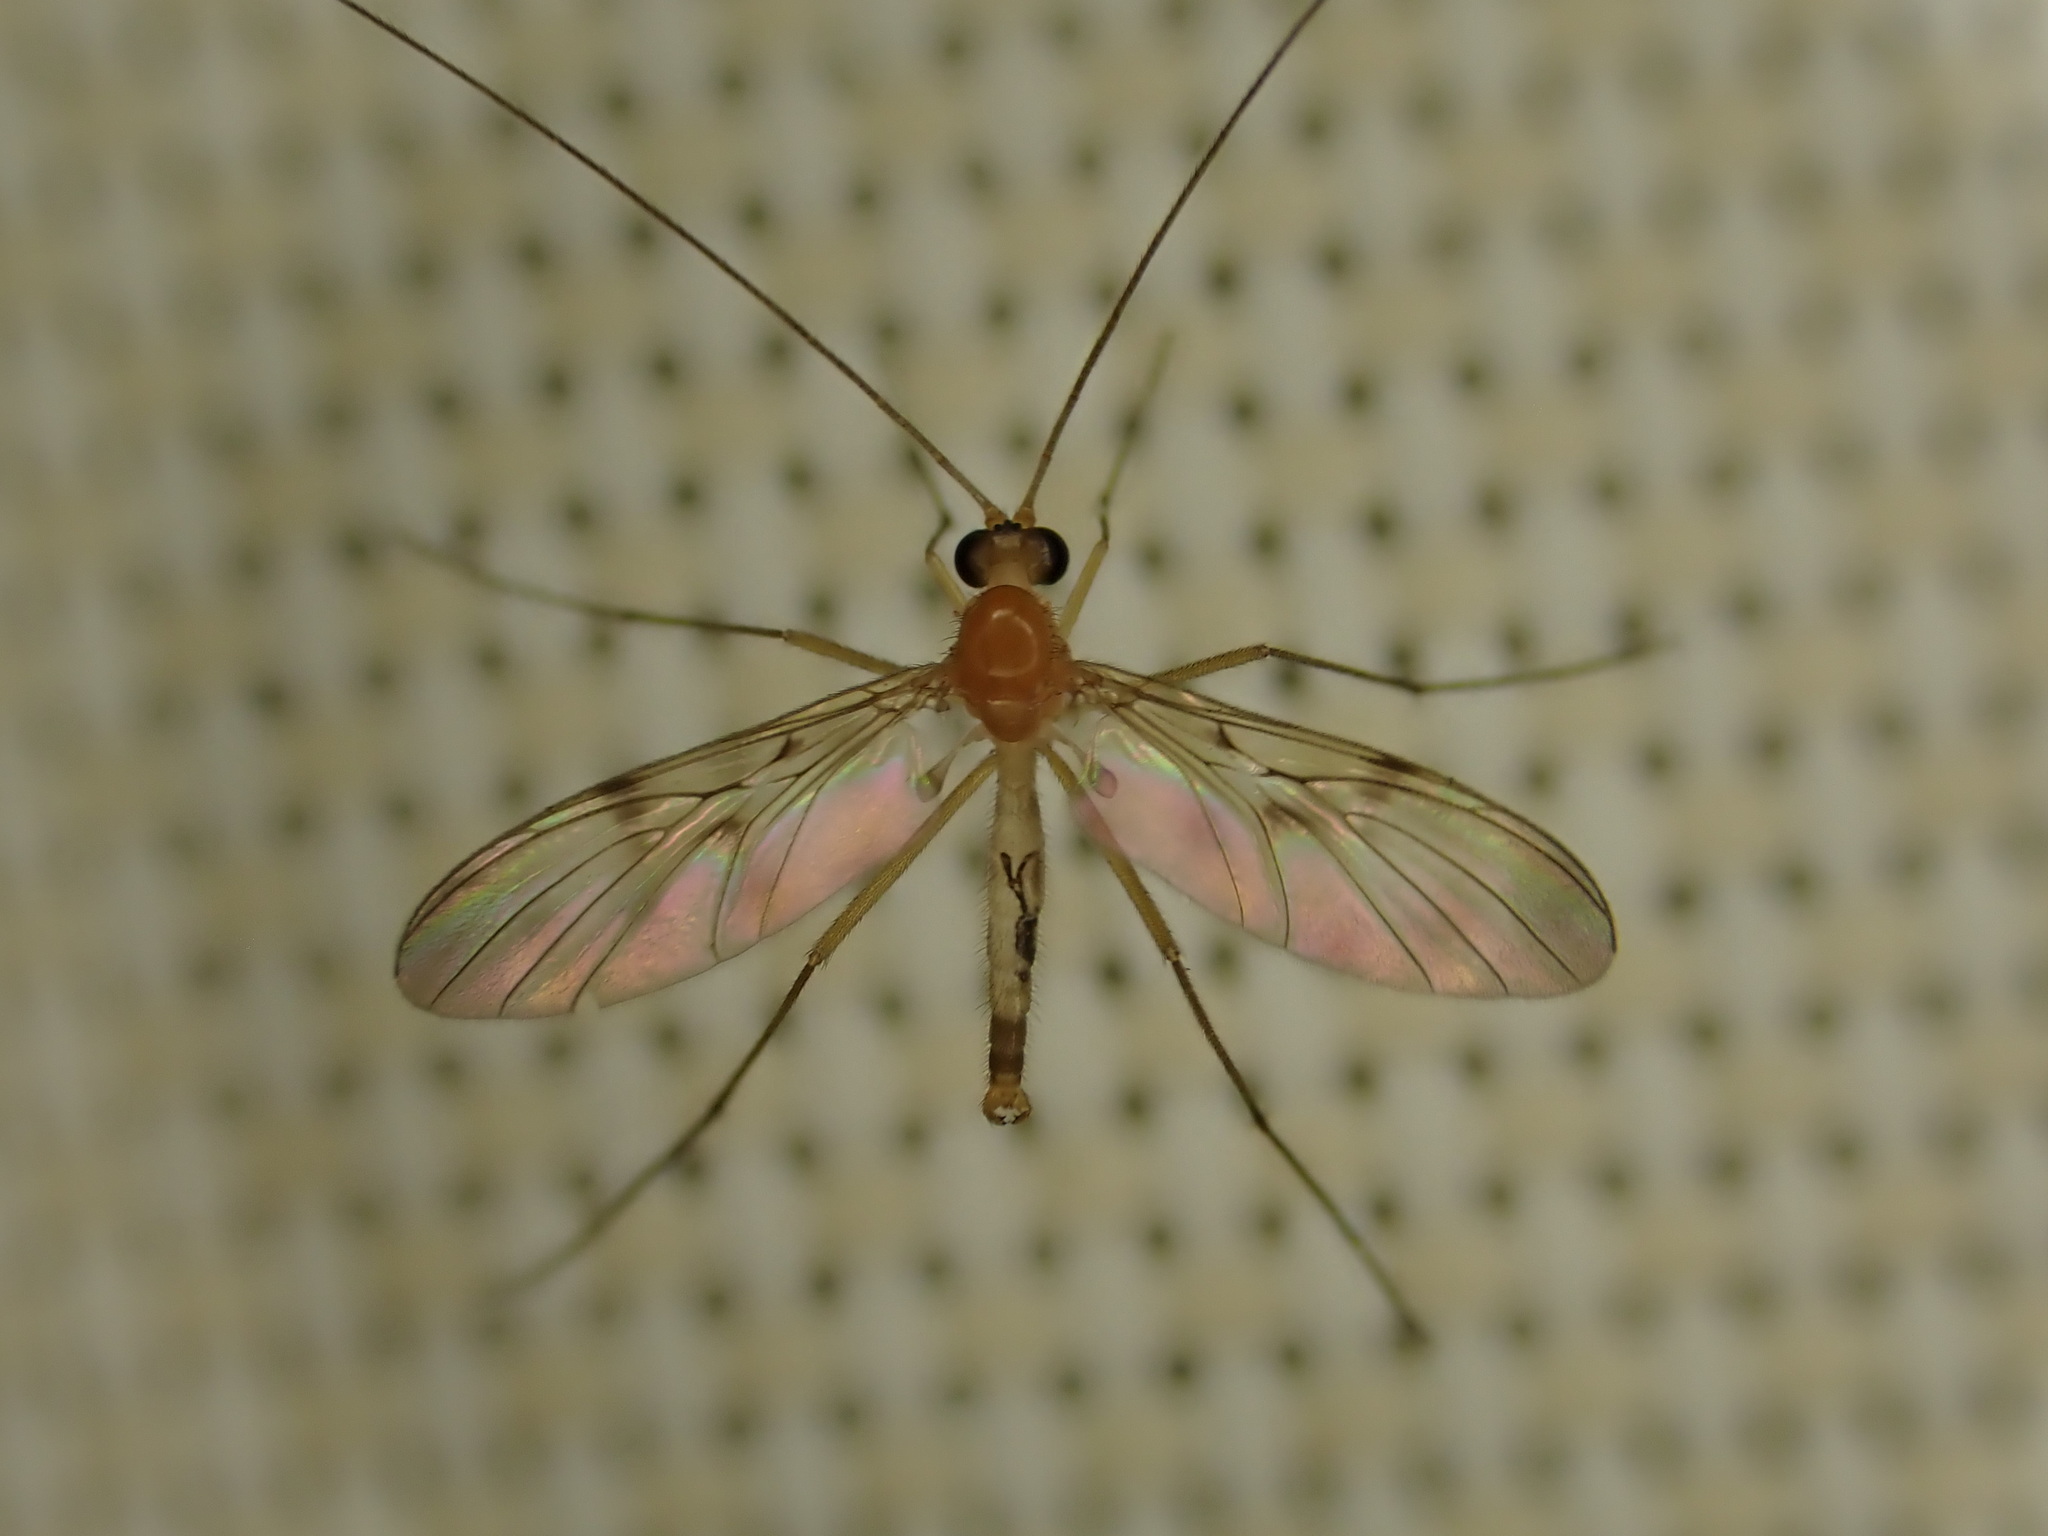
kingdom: Animalia
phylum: Arthropoda
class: Insecta
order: Diptera
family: Keroplatidae
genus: Macrocera
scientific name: Macrocera unipunctata
